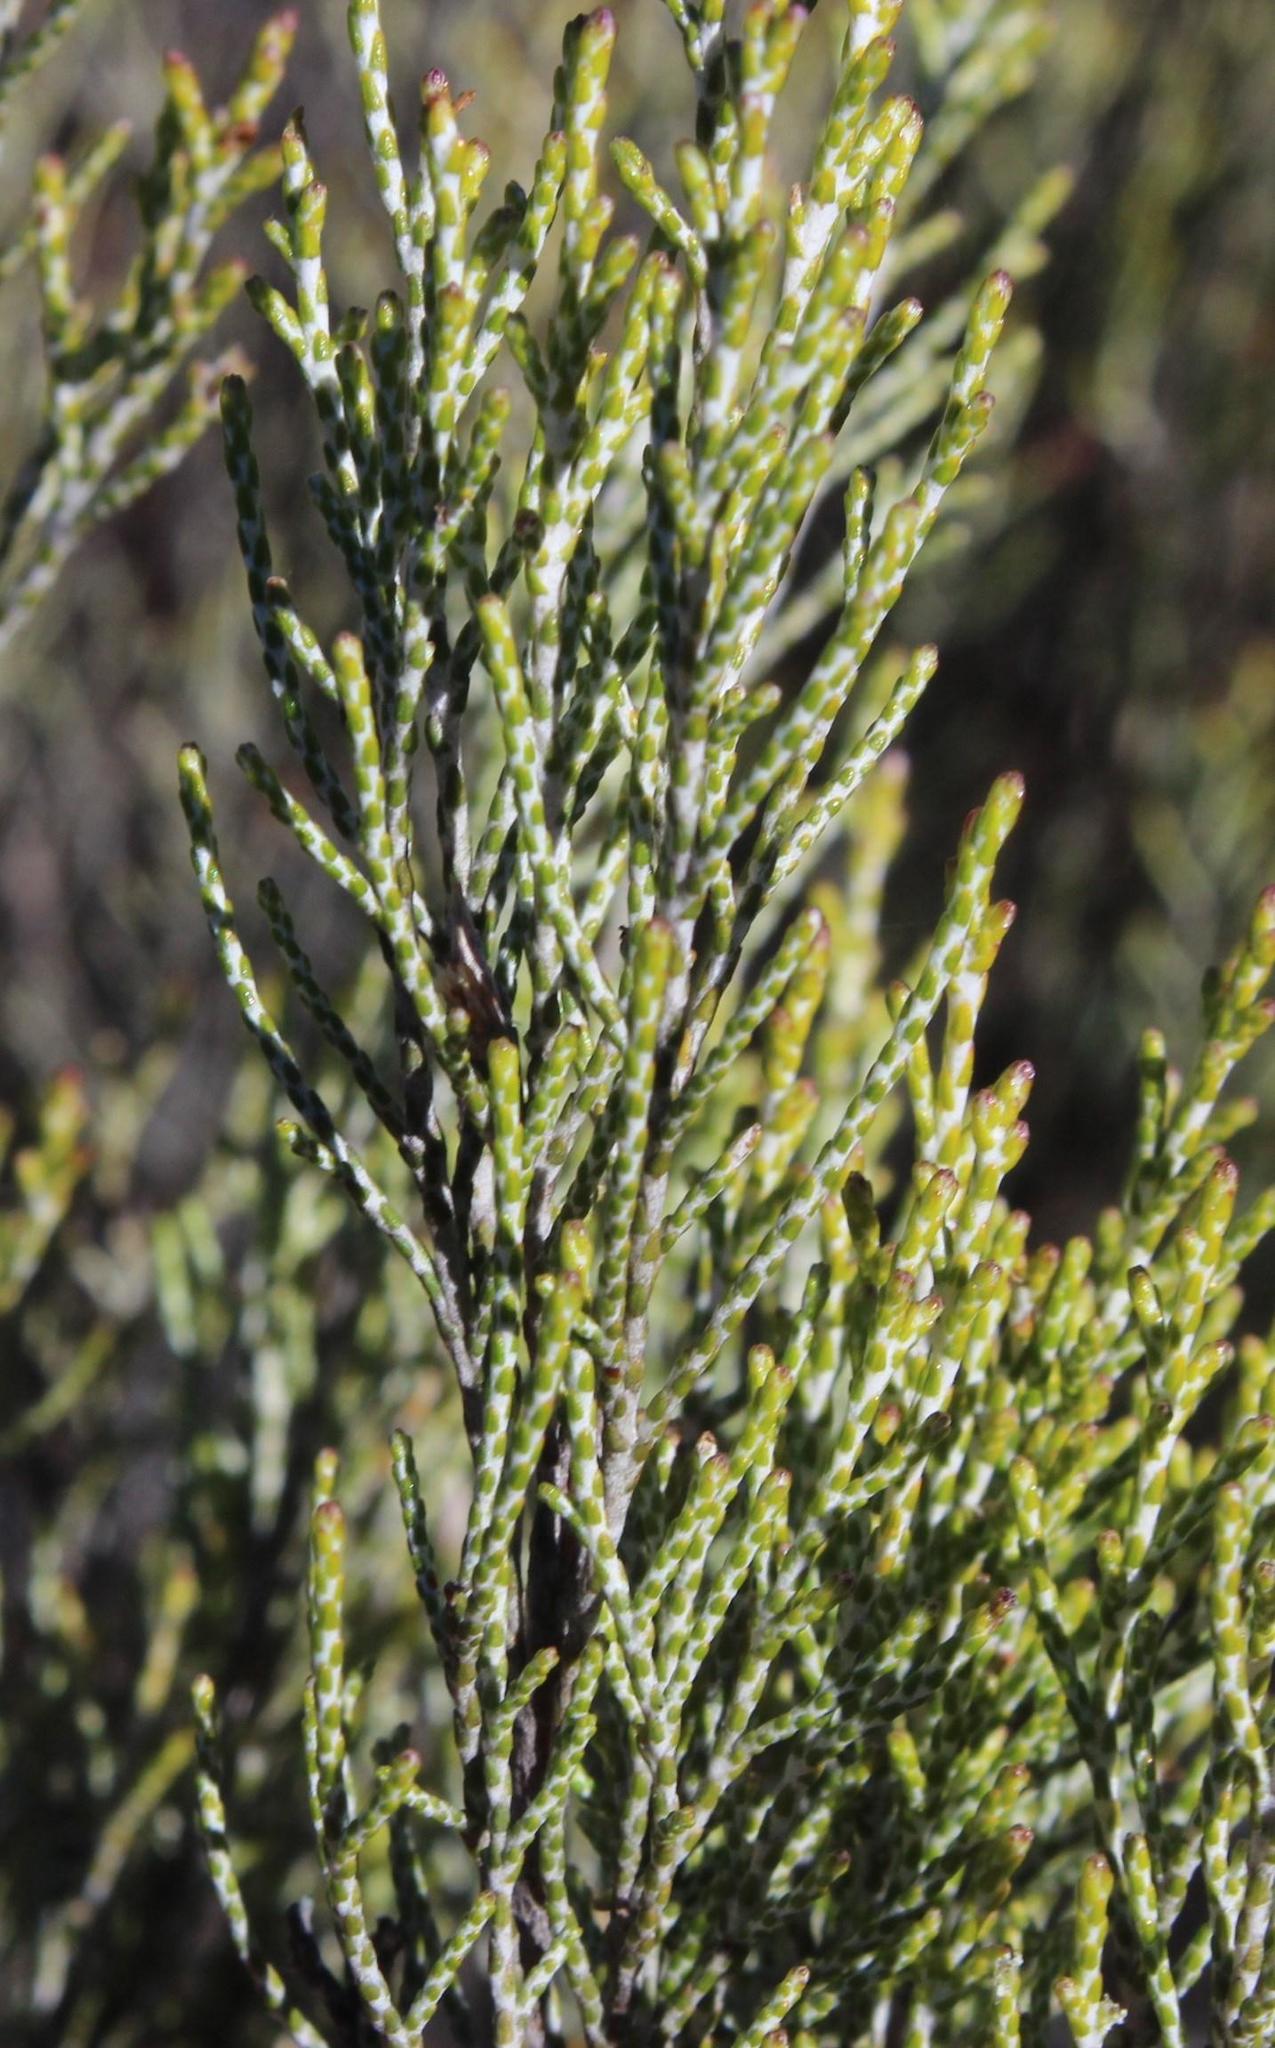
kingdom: Plantae
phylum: Tracheophyta
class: Magnoliopsida
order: Asterales
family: Asteraceae
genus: Dicerothamnus
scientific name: Dicerothamnus rhinocerotis
